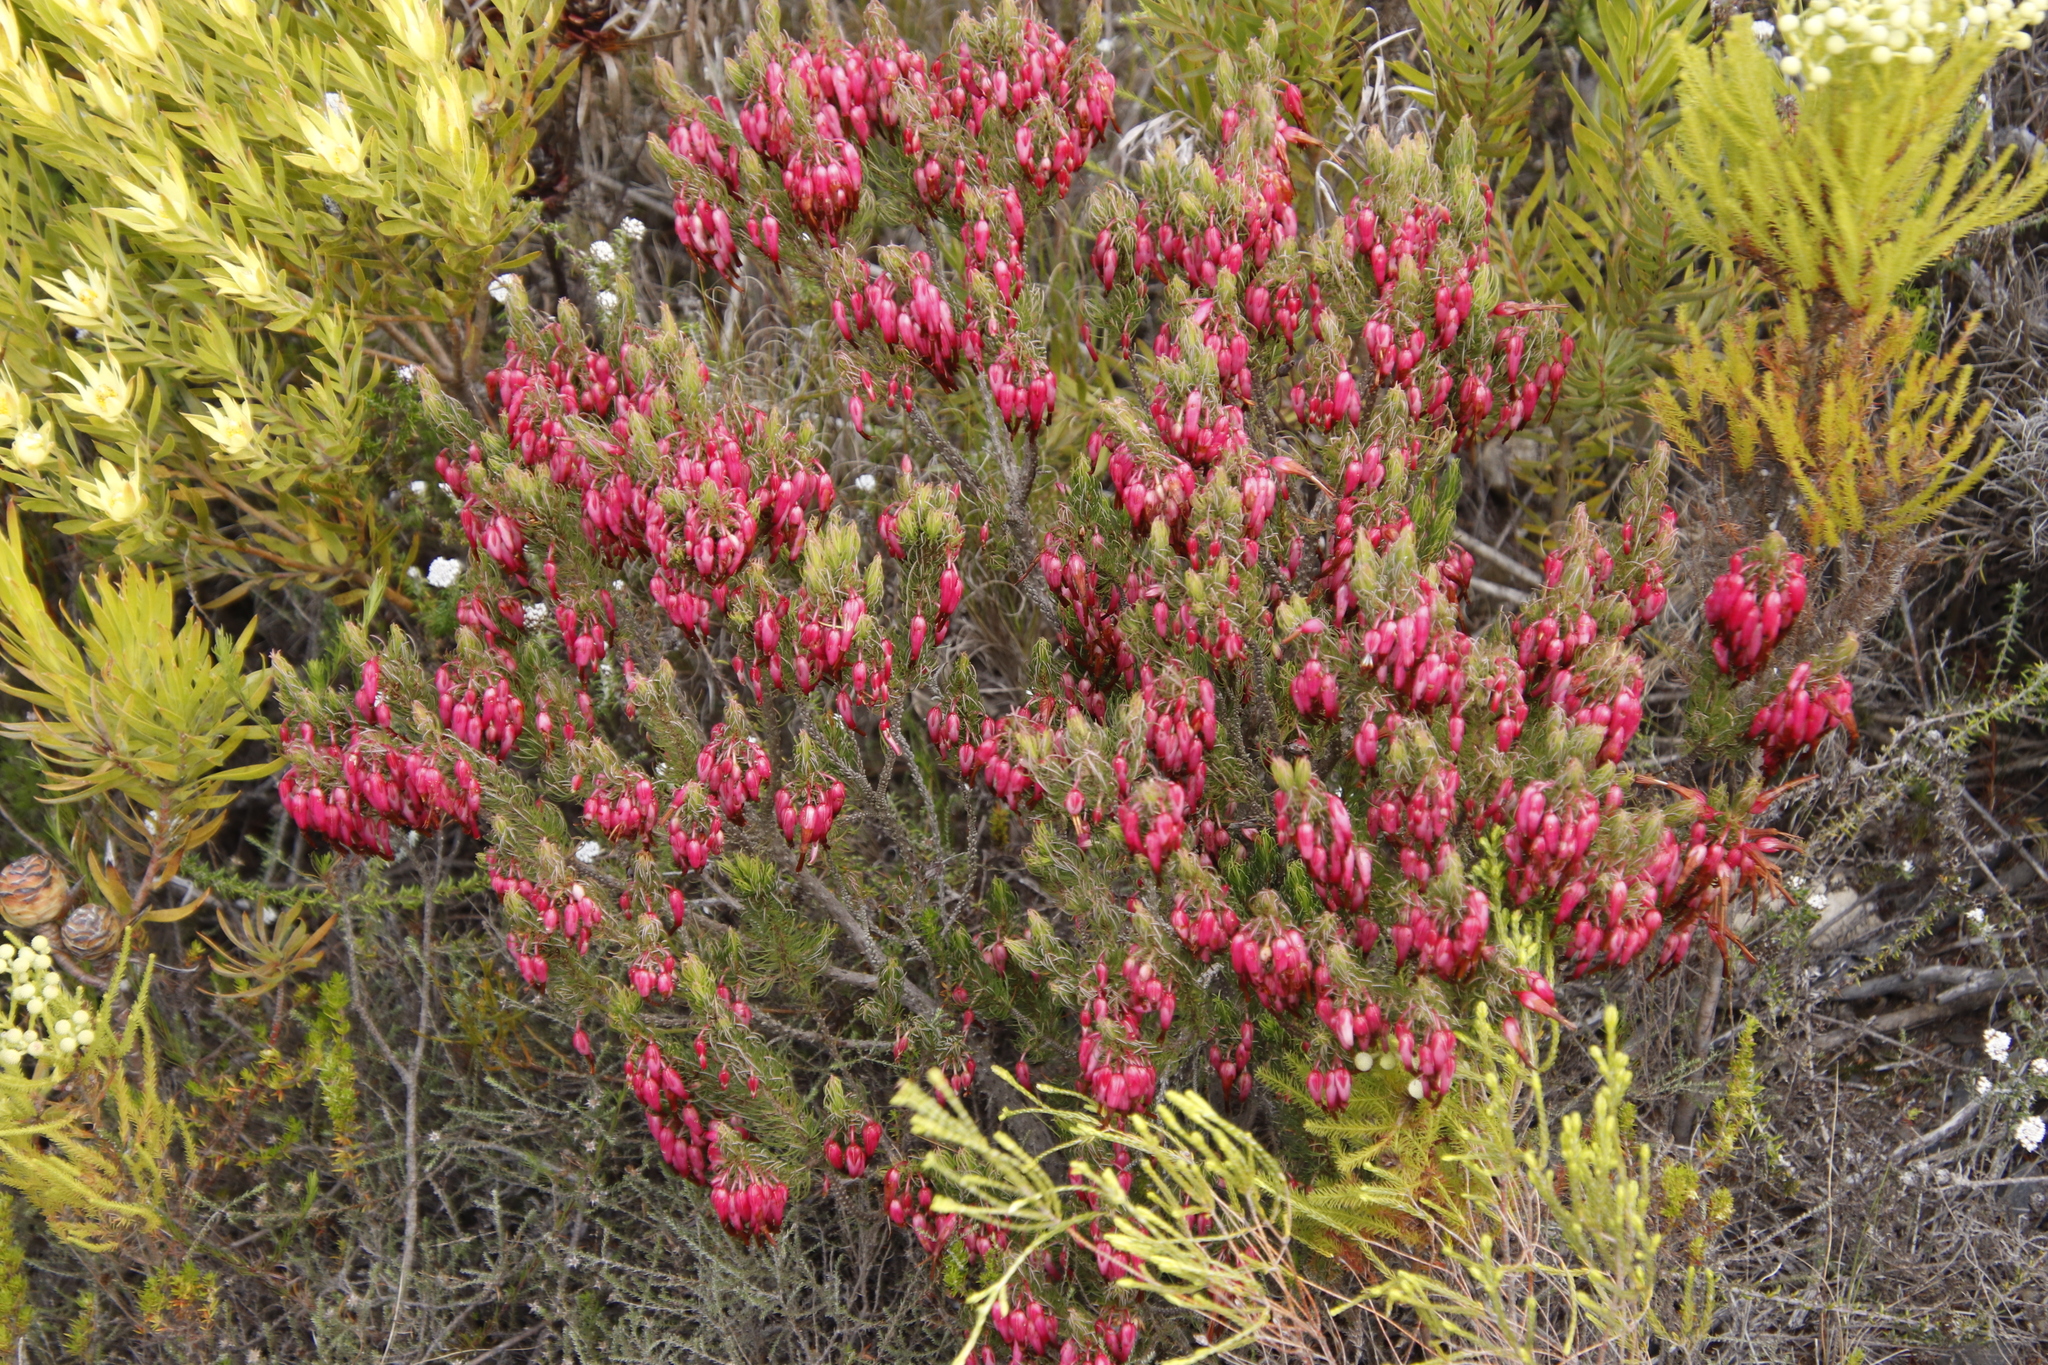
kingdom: Plantae
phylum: Tracheophyta
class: Magnoliopsida
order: Ericales
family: Ericaceae
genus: Erica
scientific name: Erica plukenetii
